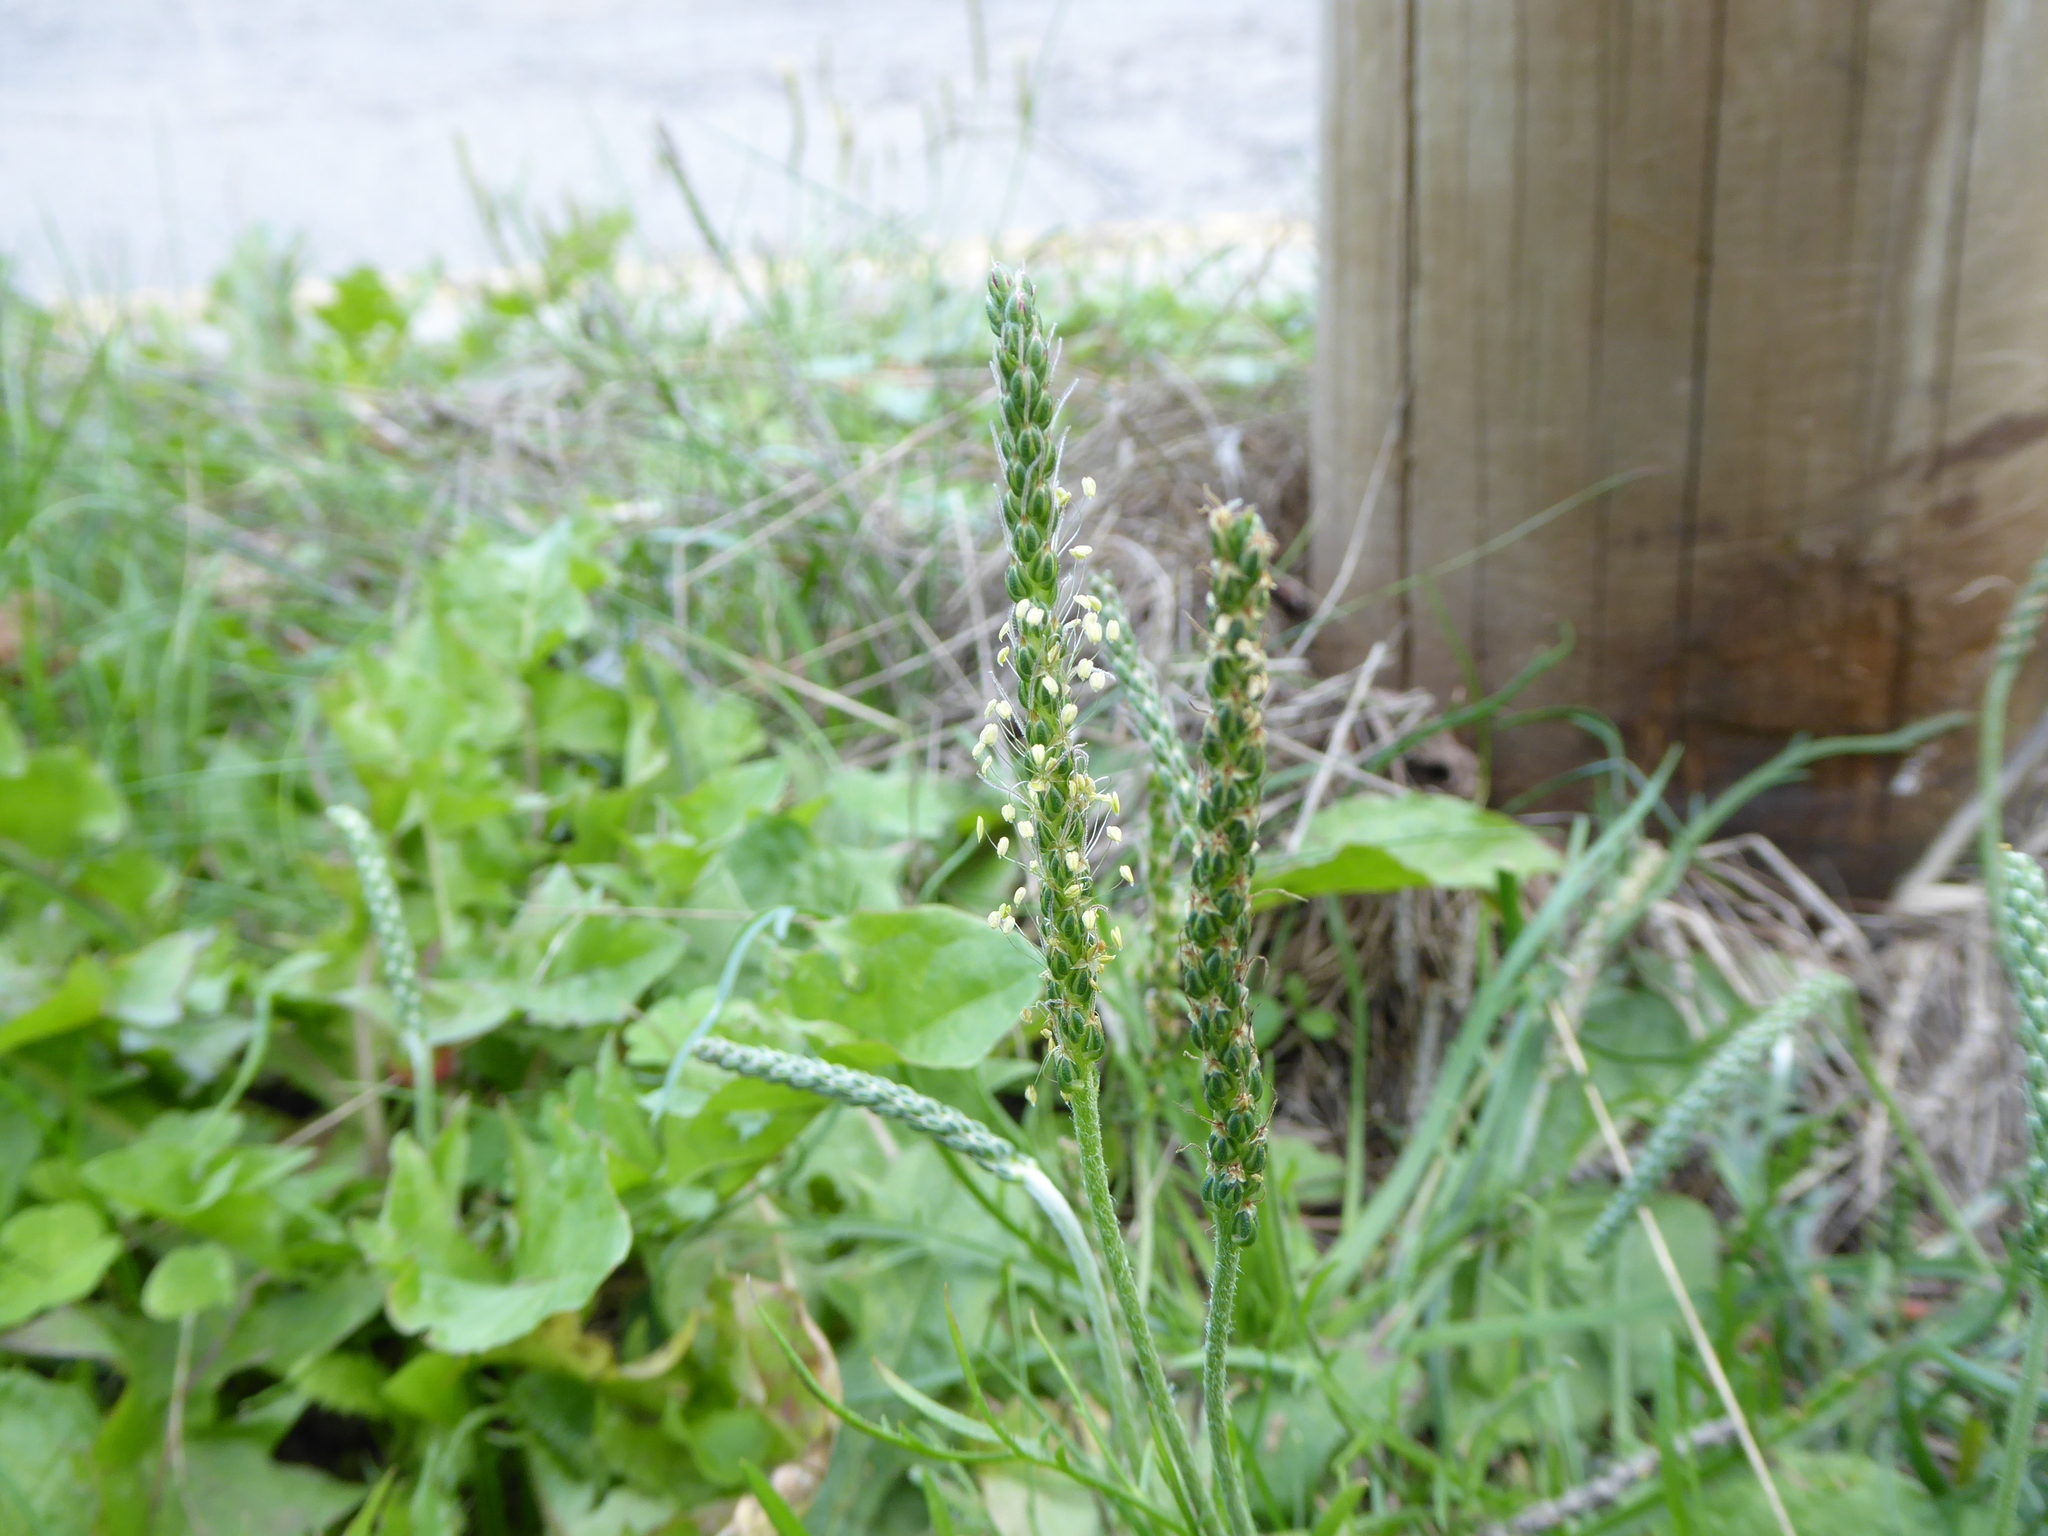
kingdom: Plantae
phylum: Tracheophyta
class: Magnoliopsida
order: Lamiales
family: Plantaginaceae
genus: Plantago
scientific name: Plantago major
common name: Common plantain
